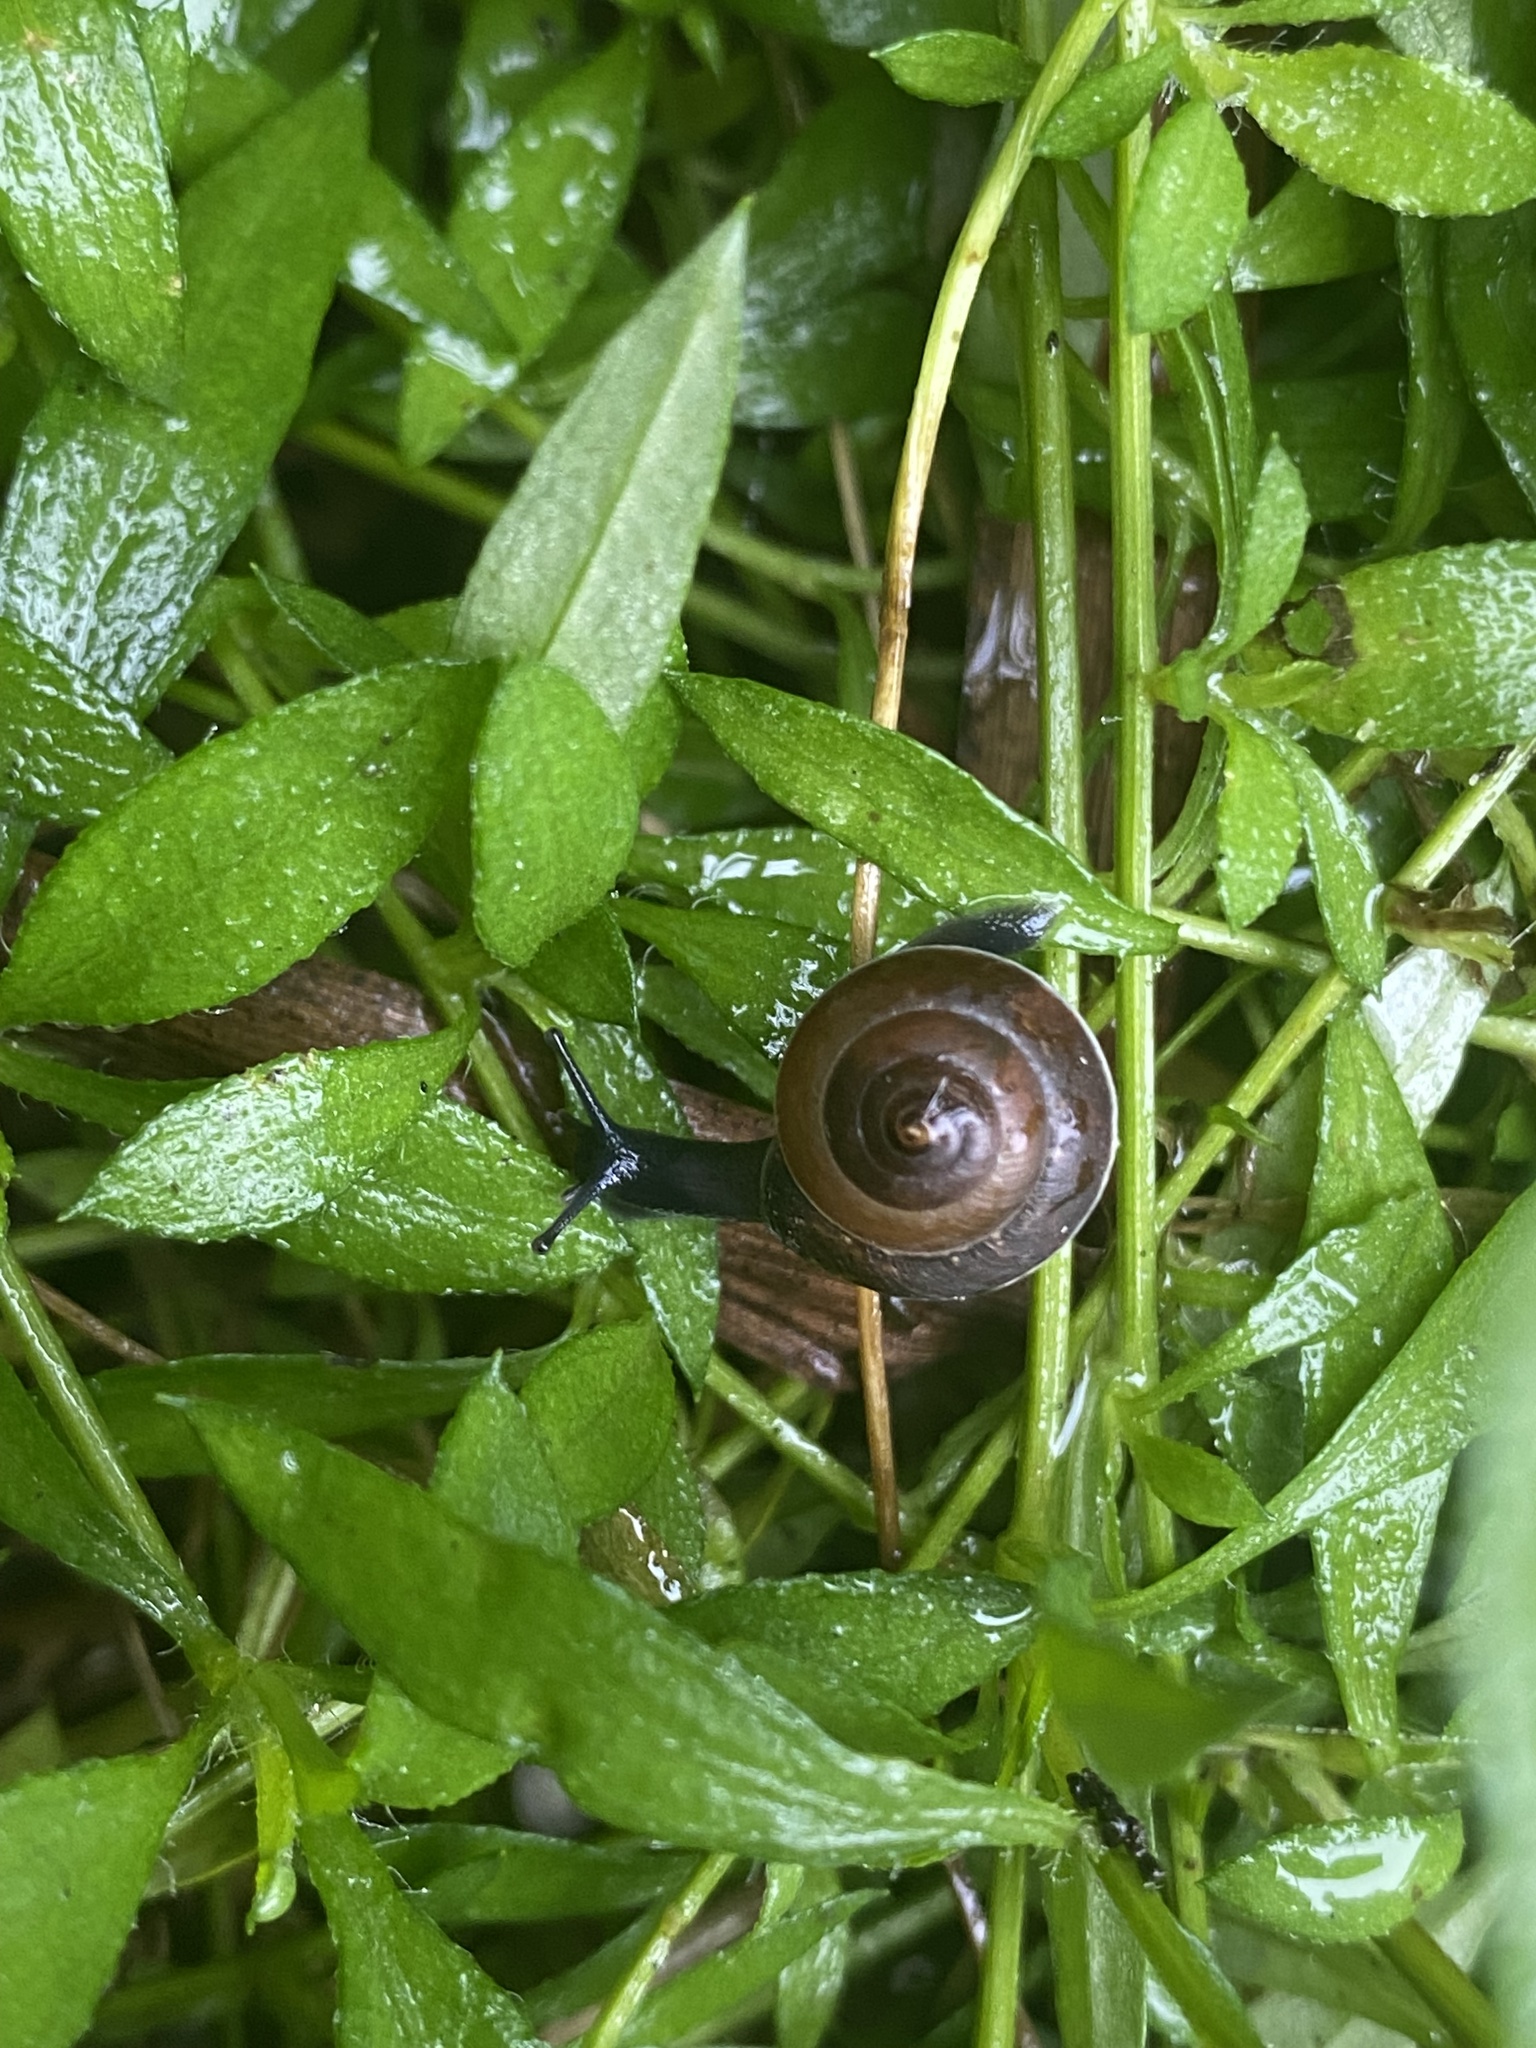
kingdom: Animalia
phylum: Mollusca
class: Gastropoda
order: Stylommatophora
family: Hygromiidae
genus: Hygromia
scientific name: Hygromia cinctella
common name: Girdled snail
